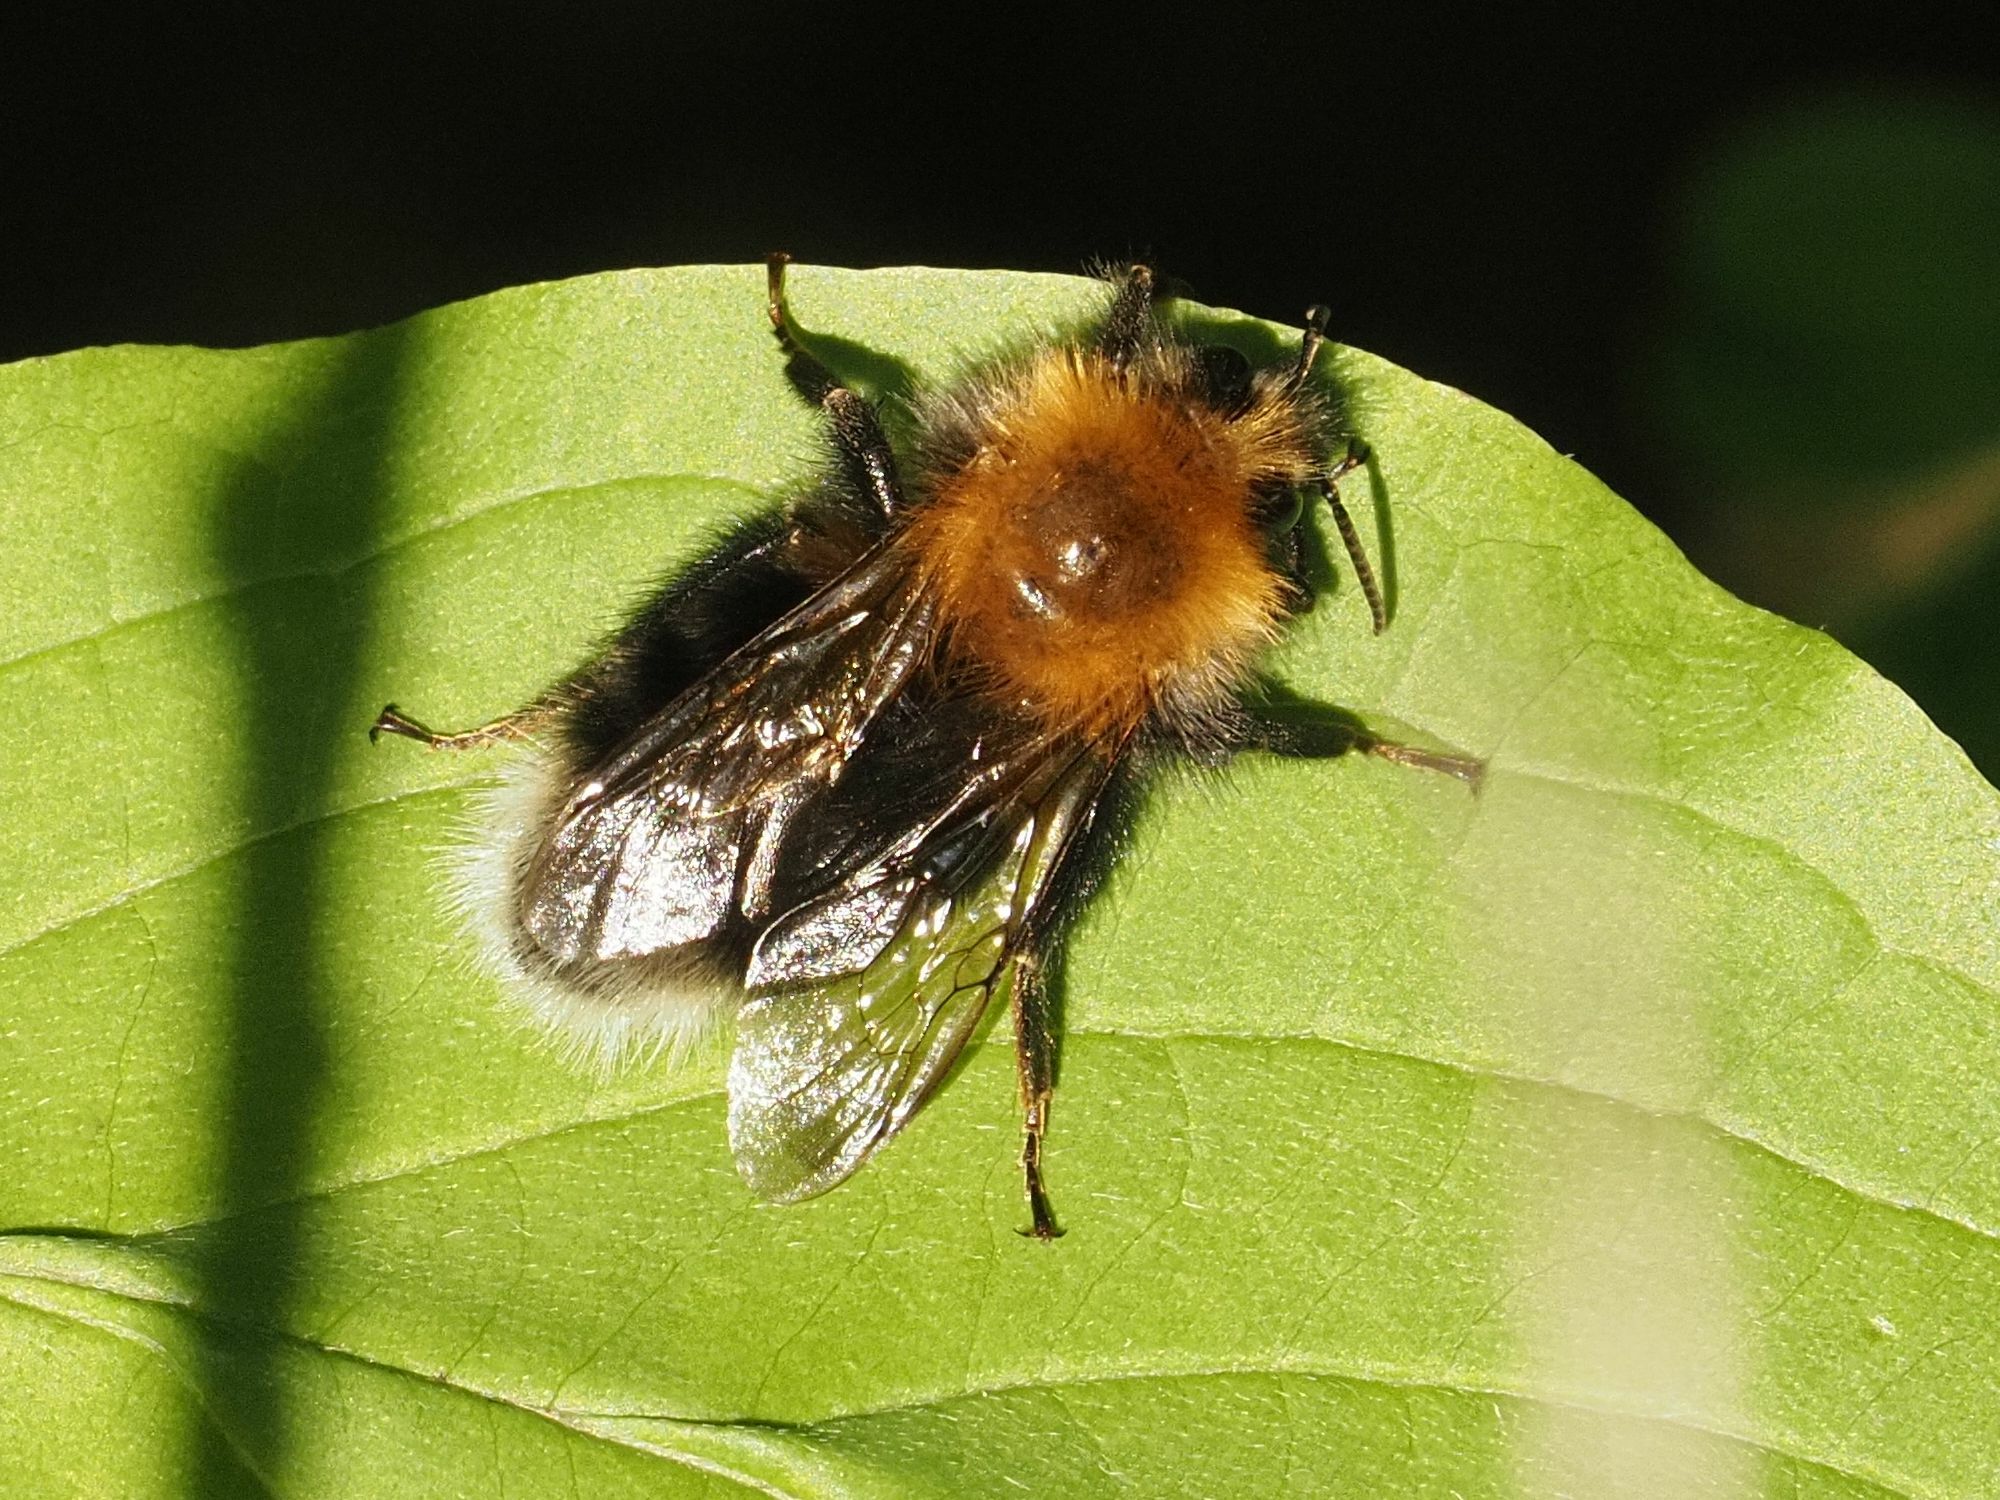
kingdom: Animalia
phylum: Arthropoda
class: Insecta
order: Hymenoptera
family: Apidae
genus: Bombus
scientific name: Bombus hypnorum
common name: New garden bumblebee
